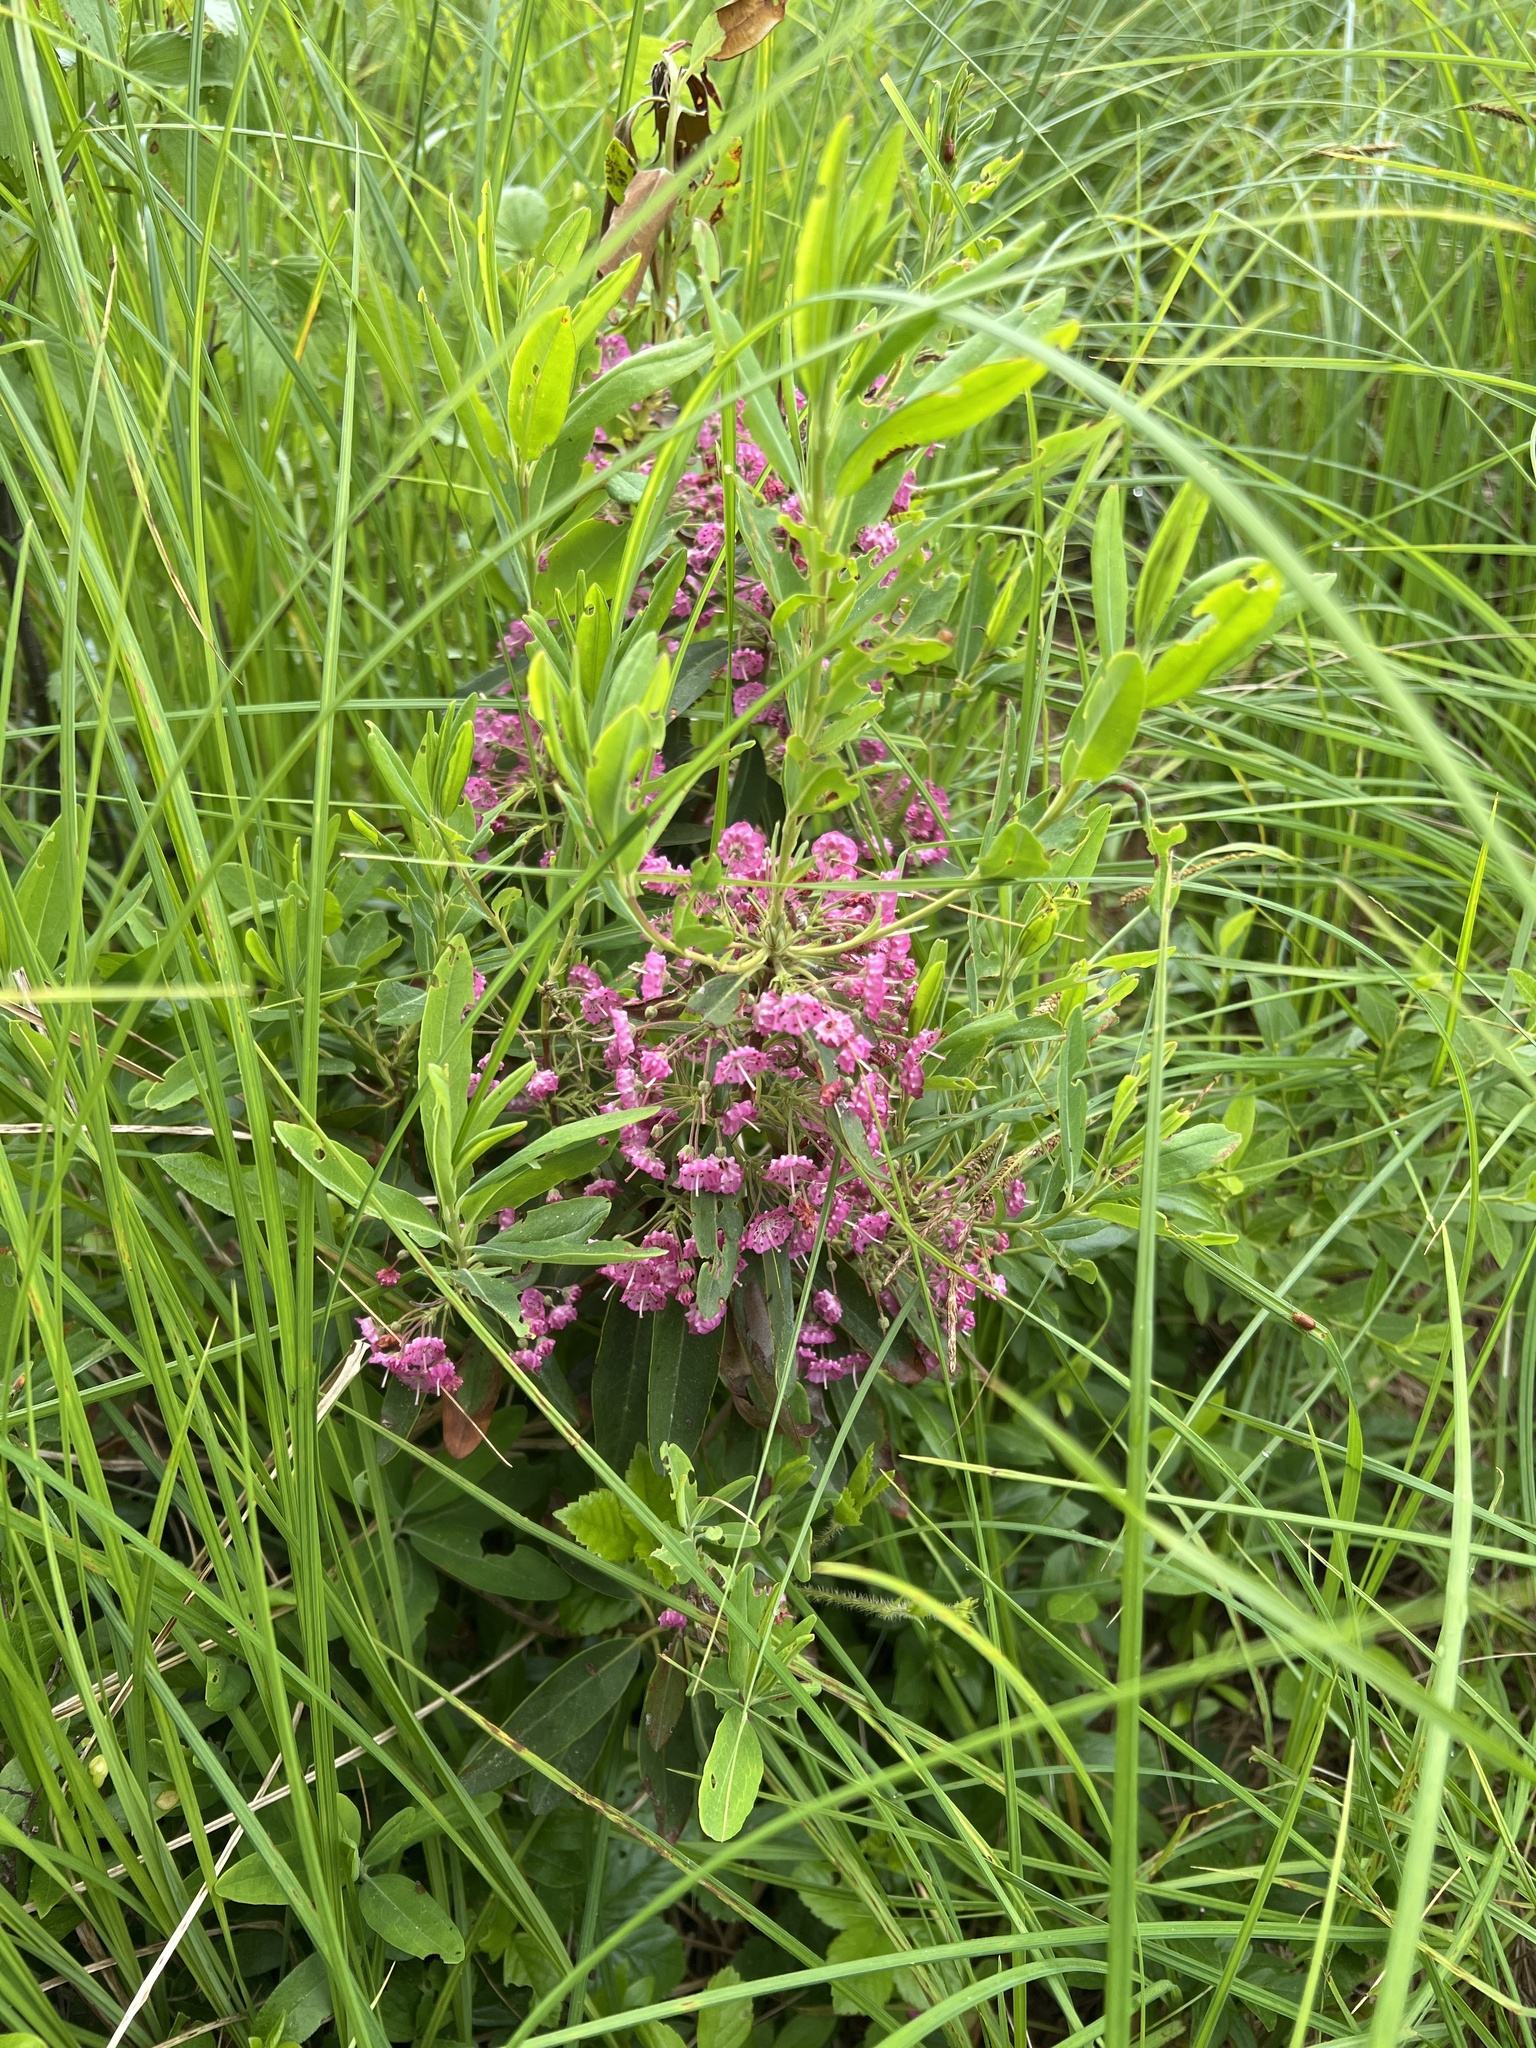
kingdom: Plantae
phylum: Tracheophyta
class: Magnoliopsida
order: Ericales
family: Ericaceae
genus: Kalmia
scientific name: Kalmia angustifolia
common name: Sheep-laurel
